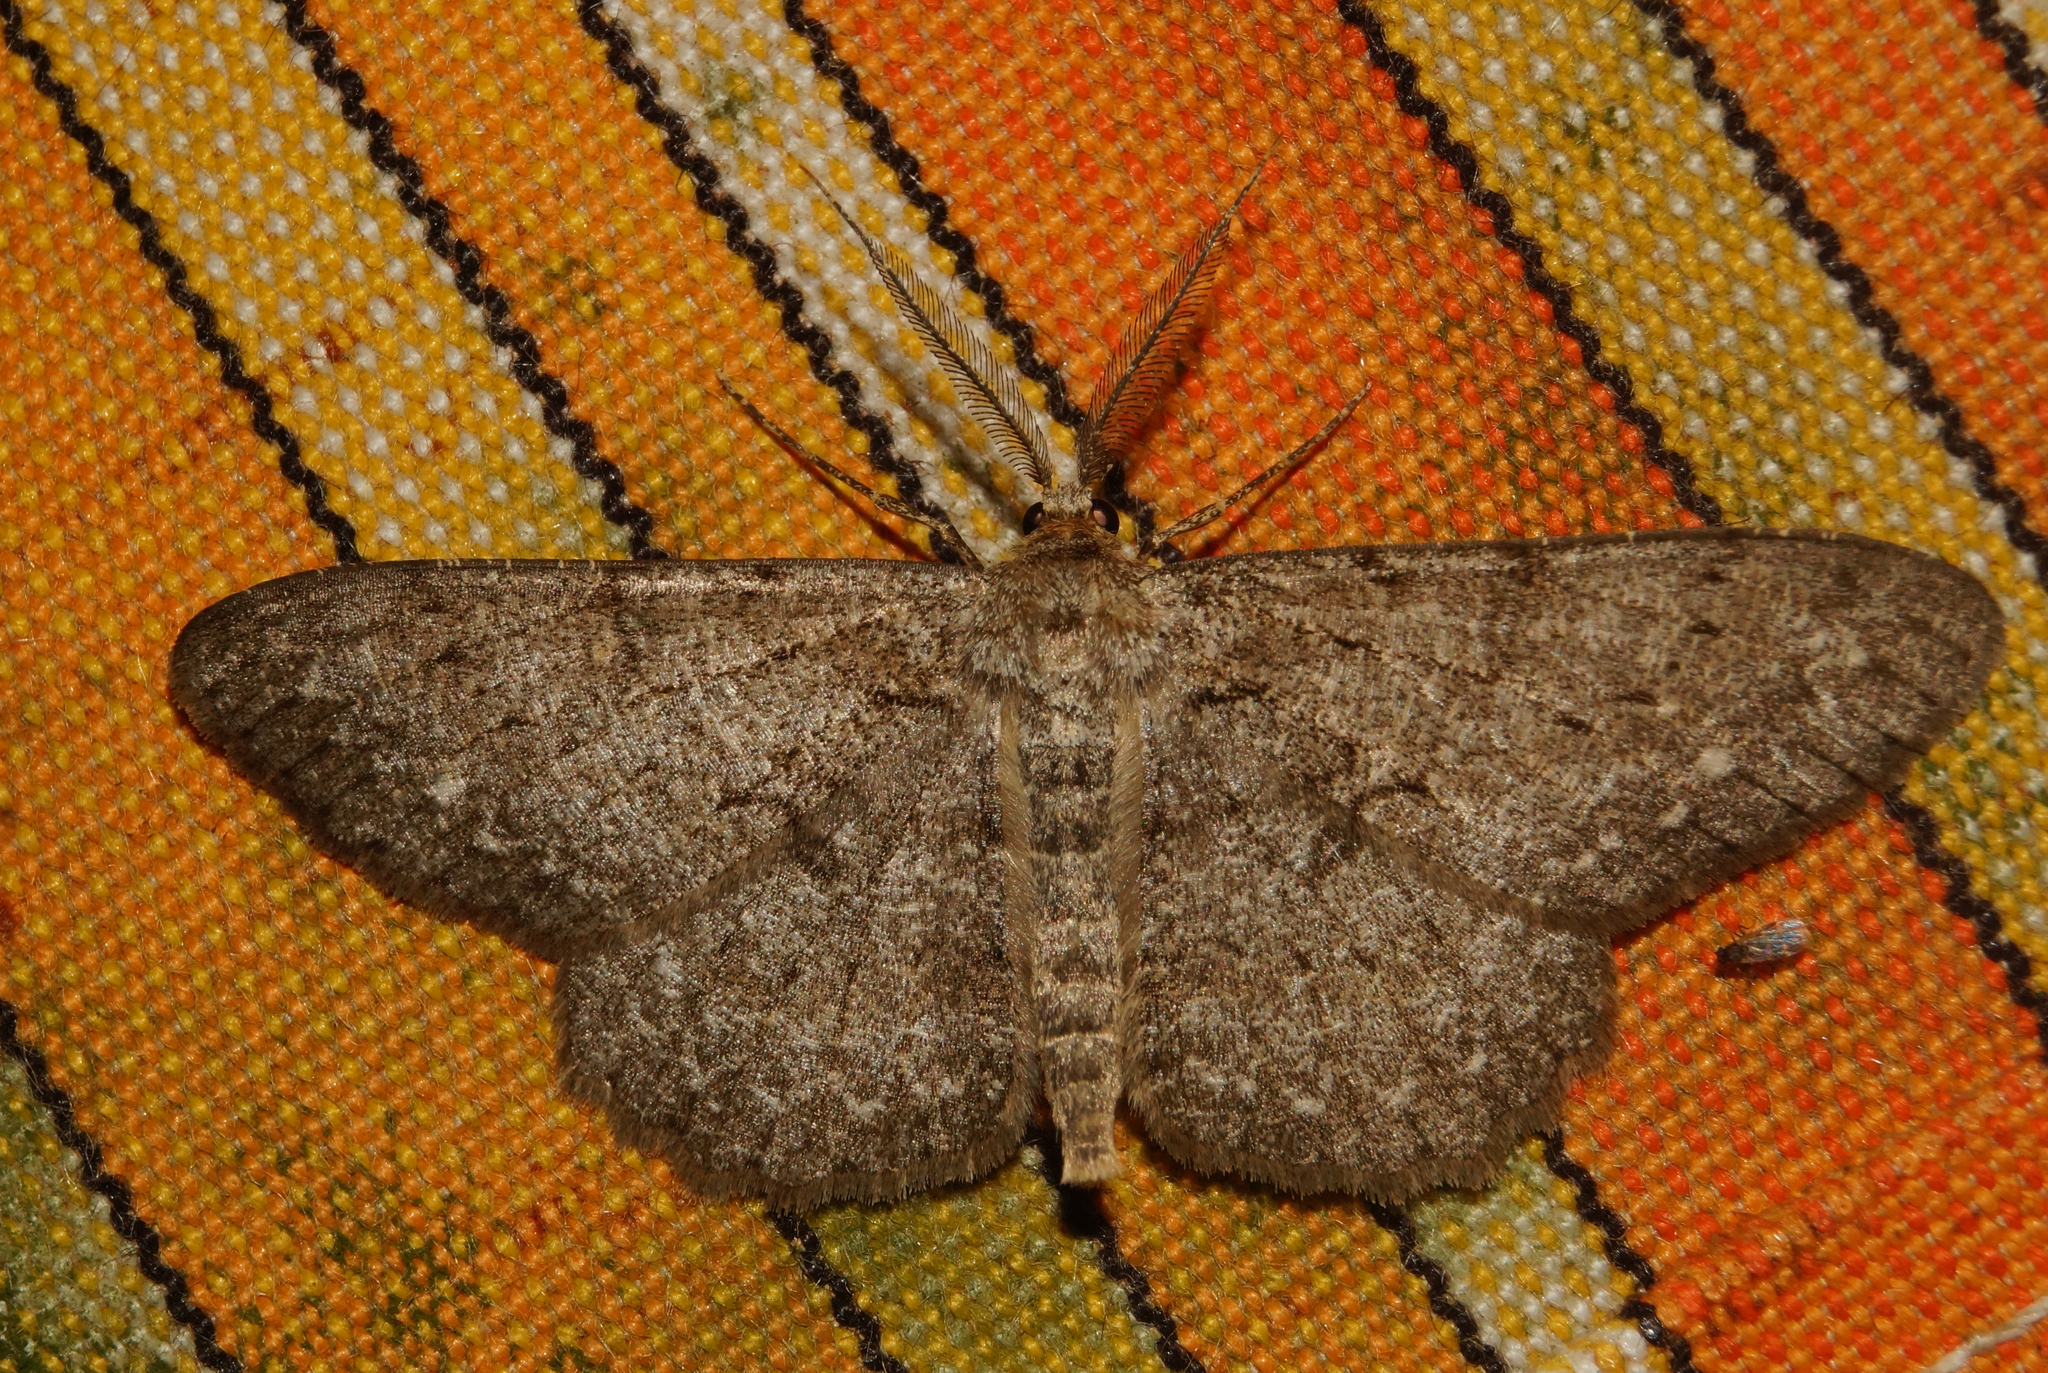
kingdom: Animalia
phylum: Arthropoda
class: Insecta
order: Lepidoptera
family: Geometridae
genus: Hypomecis
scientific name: Hypomecis punctinalis
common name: Pale oak beauty
